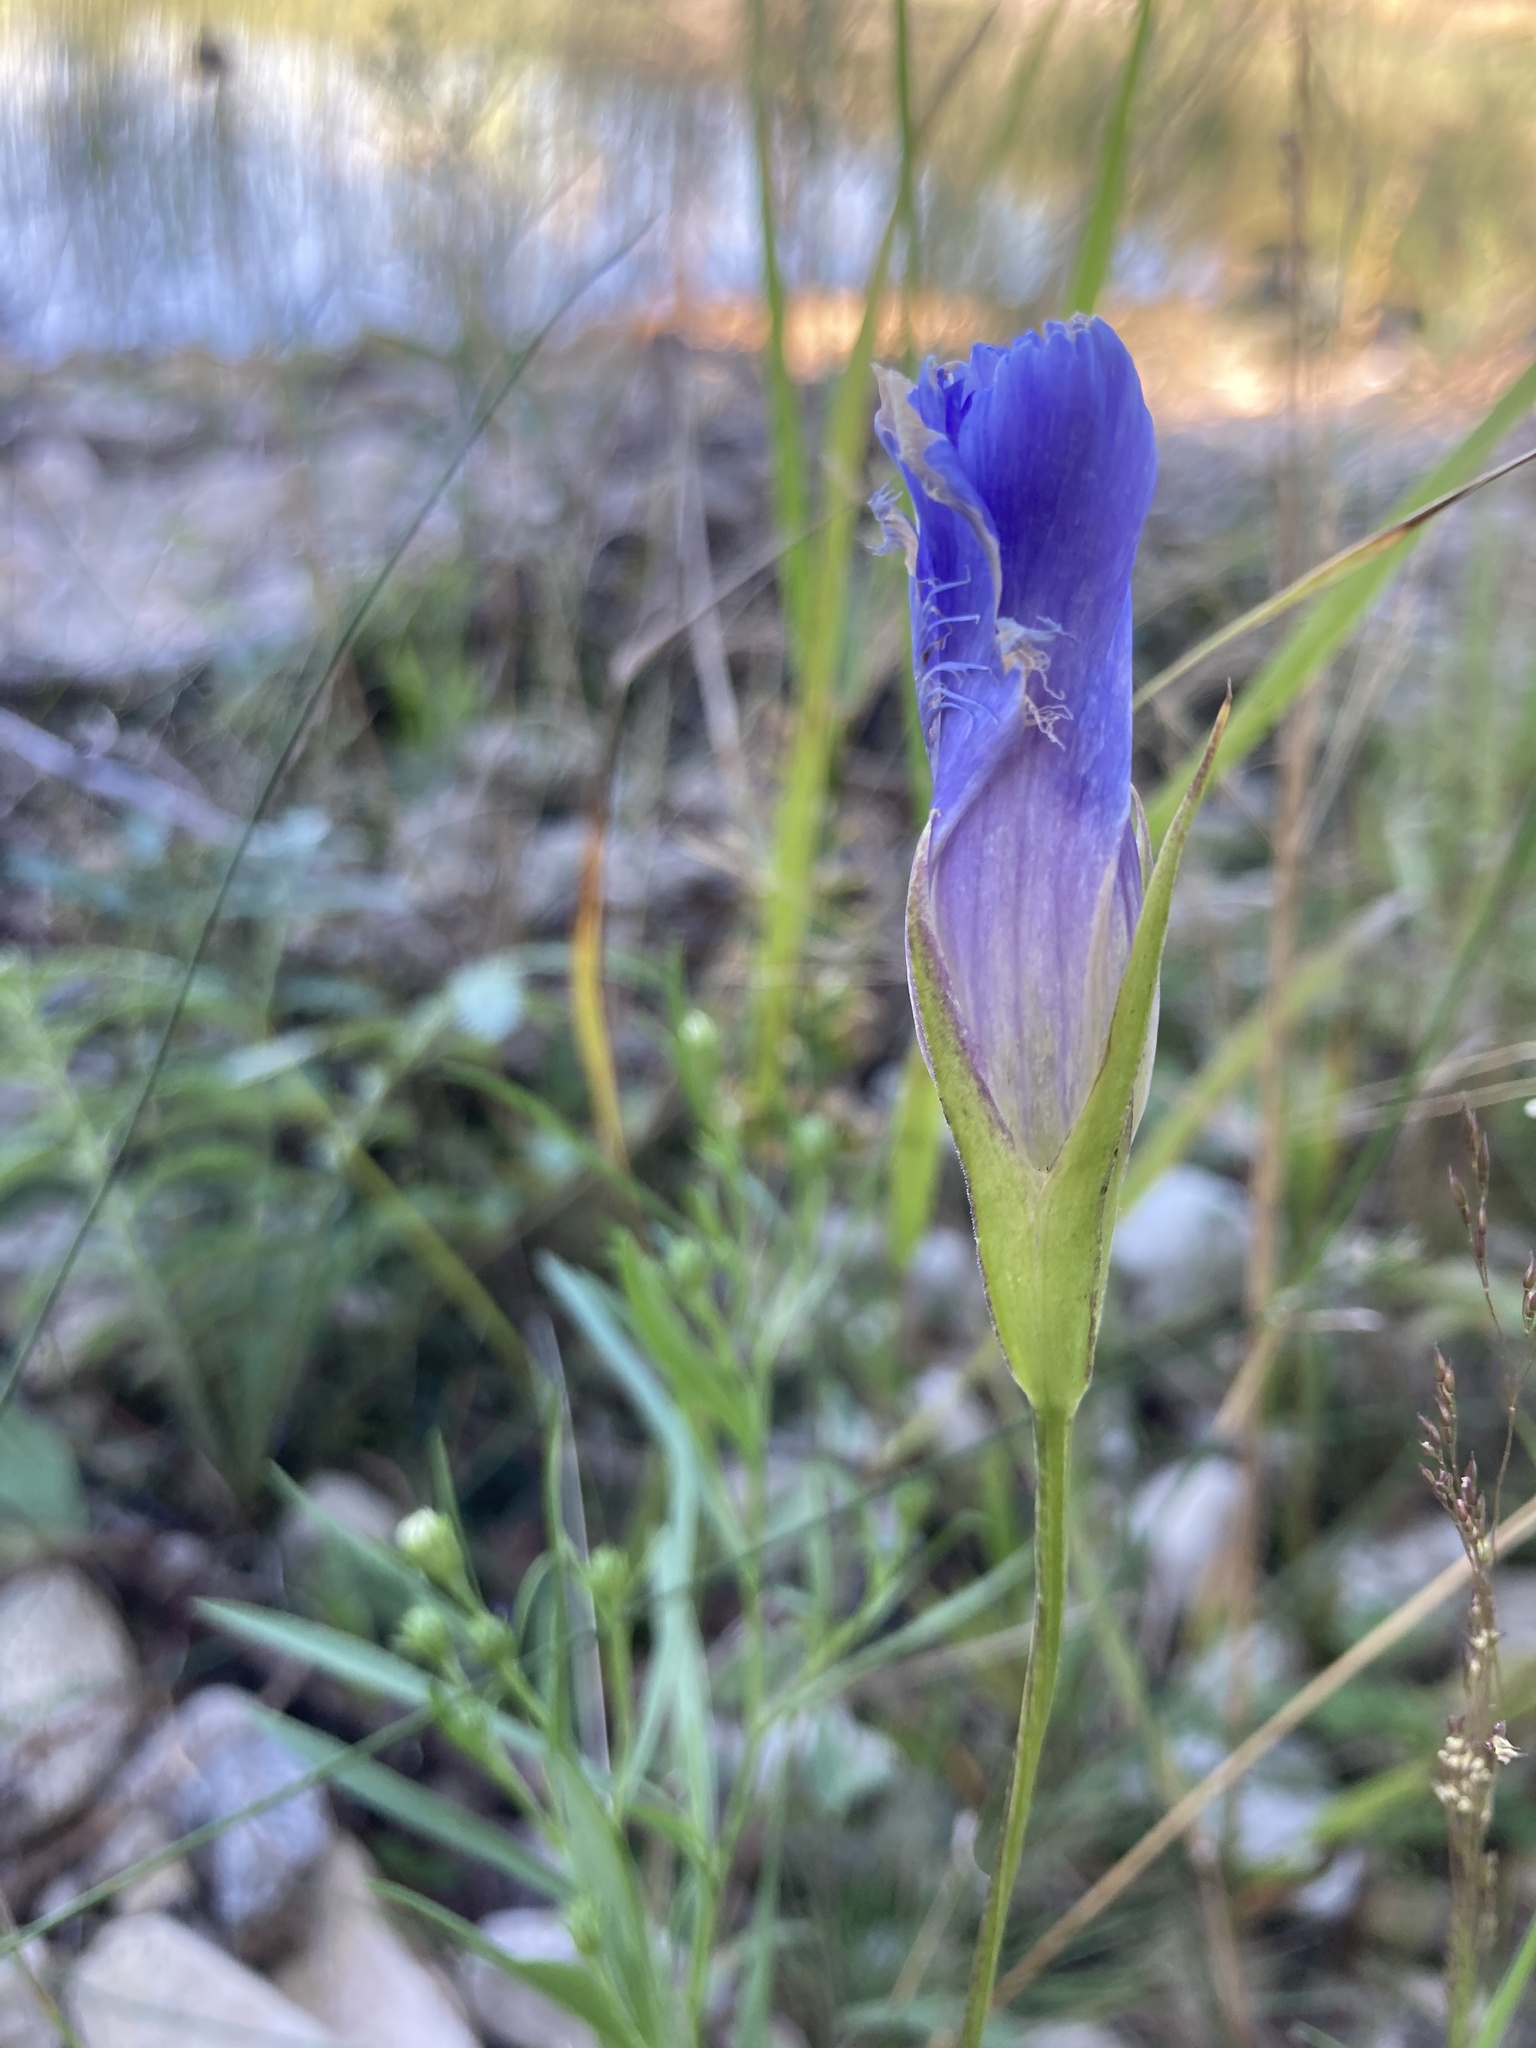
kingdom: Plantae
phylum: Tracheophyta
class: Magnoliopsida
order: Gentianales
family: Gentianaceae
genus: Gentianopsis
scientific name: Gentianopsis virgata
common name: Lesser fringed-gentian
